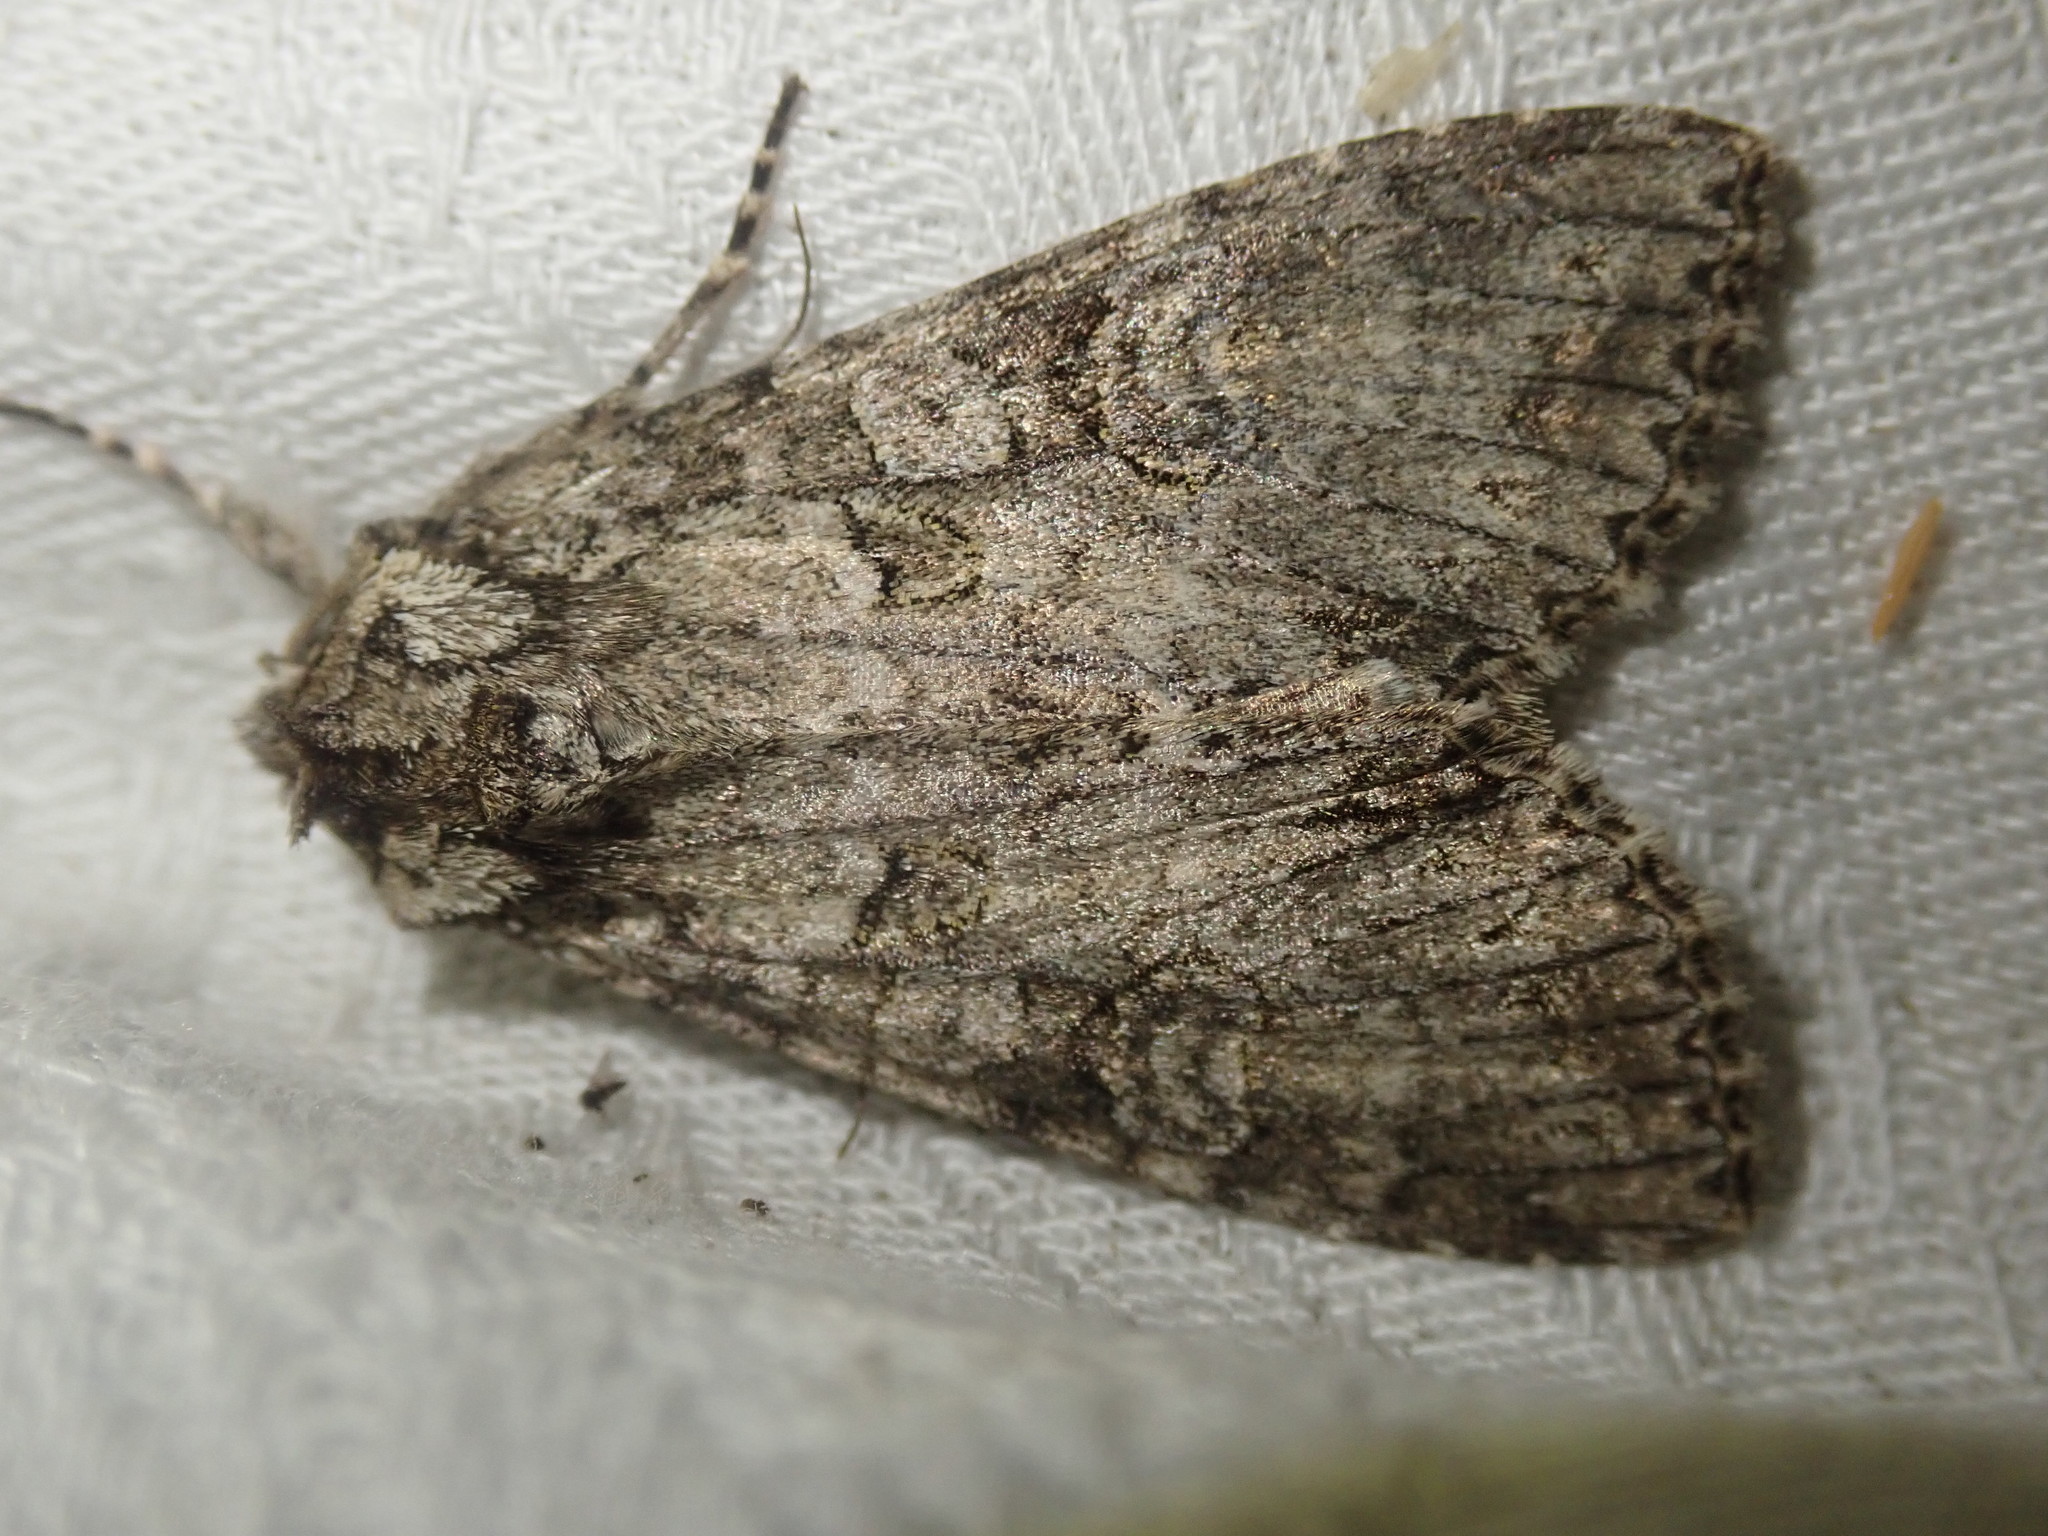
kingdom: Animalia
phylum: Arthropoda
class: Insecta
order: Lepidoptera
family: Noctuidae
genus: Polia
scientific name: Polia nebulosa
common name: Grey arches
